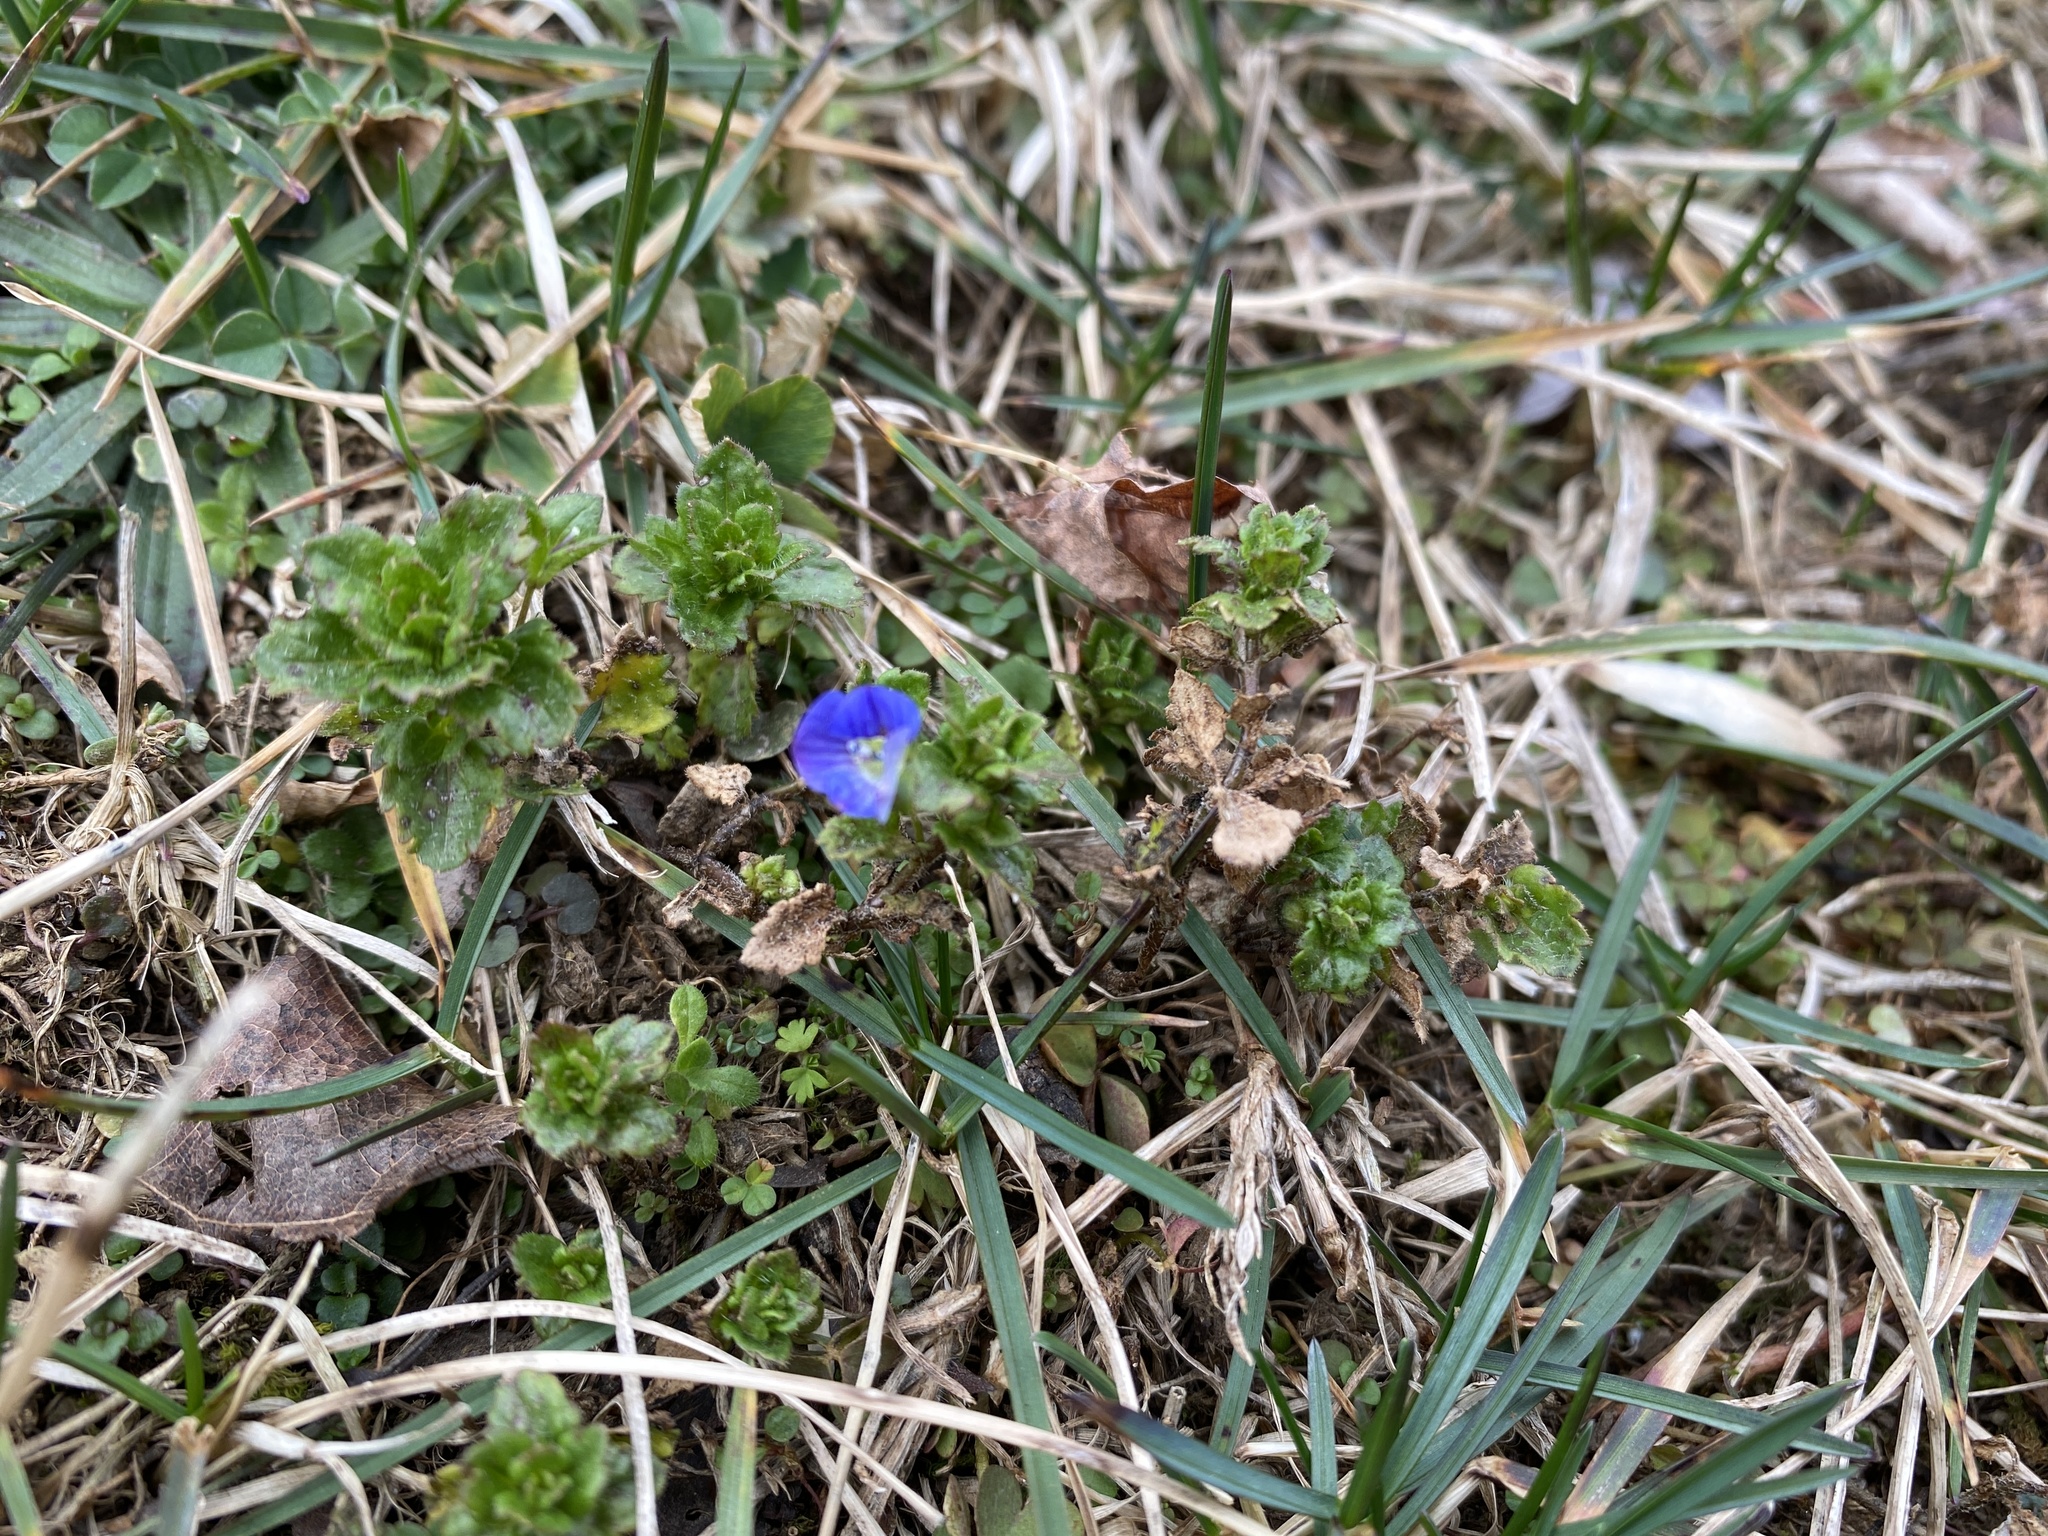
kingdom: Plantae
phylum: Tracheophyta
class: Magnoliopsida
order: Lamiales
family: Plantaginaceae
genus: Veronica
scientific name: Veronica persica
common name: Common field-speedwell
